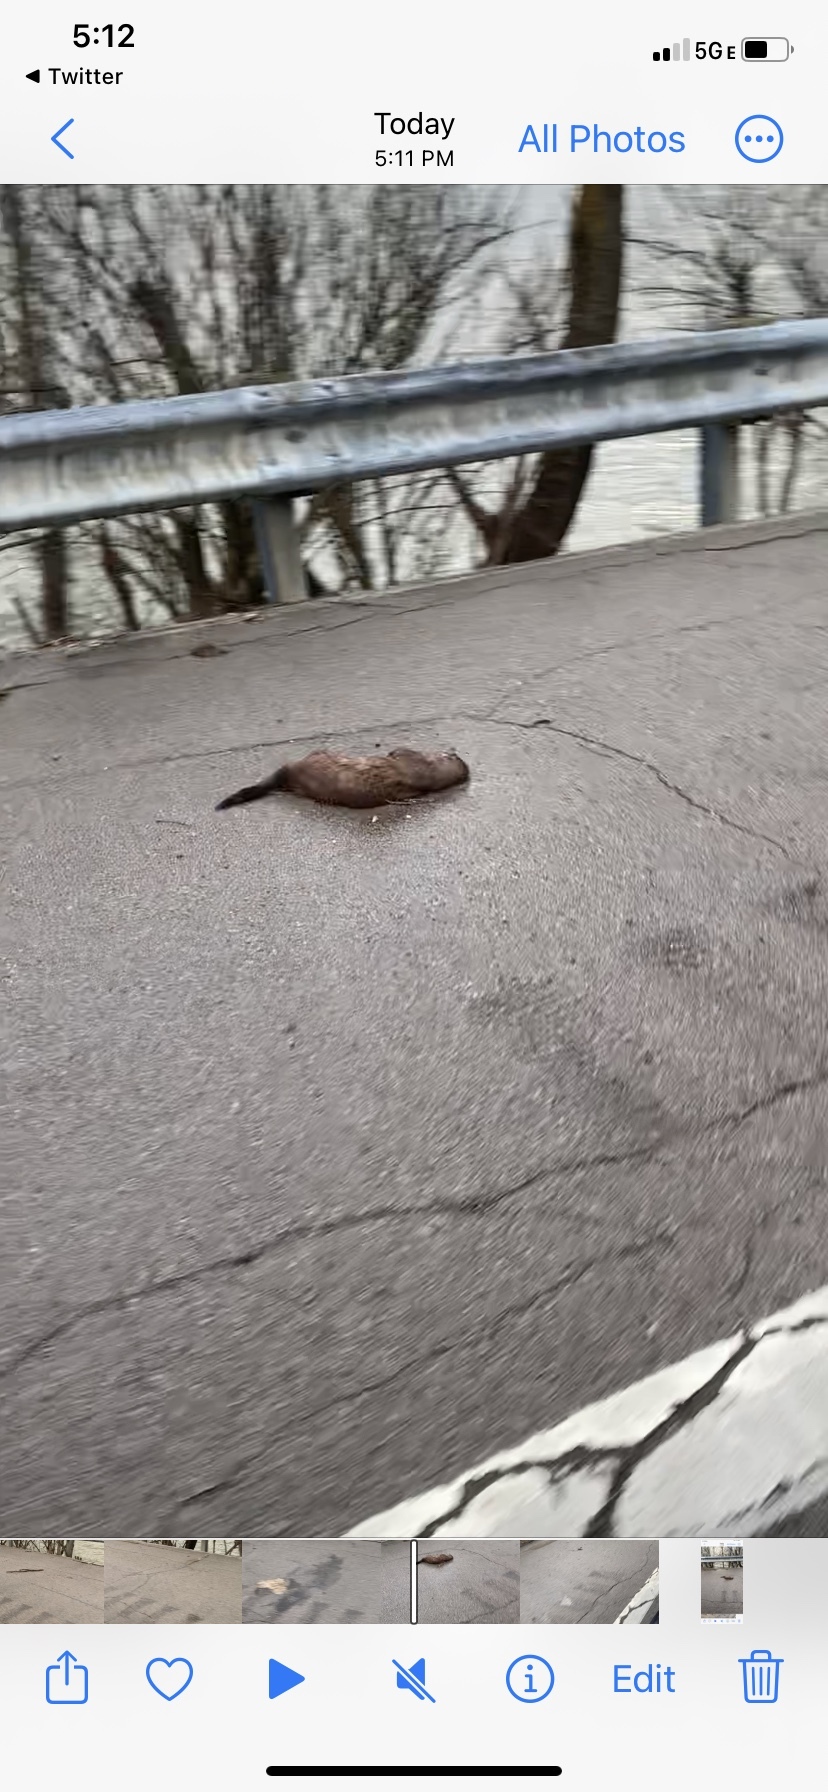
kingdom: Animalia
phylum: Chordata
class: Mammalia
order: Carnivora
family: Mustelidae
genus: Mustela
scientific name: Mustela
